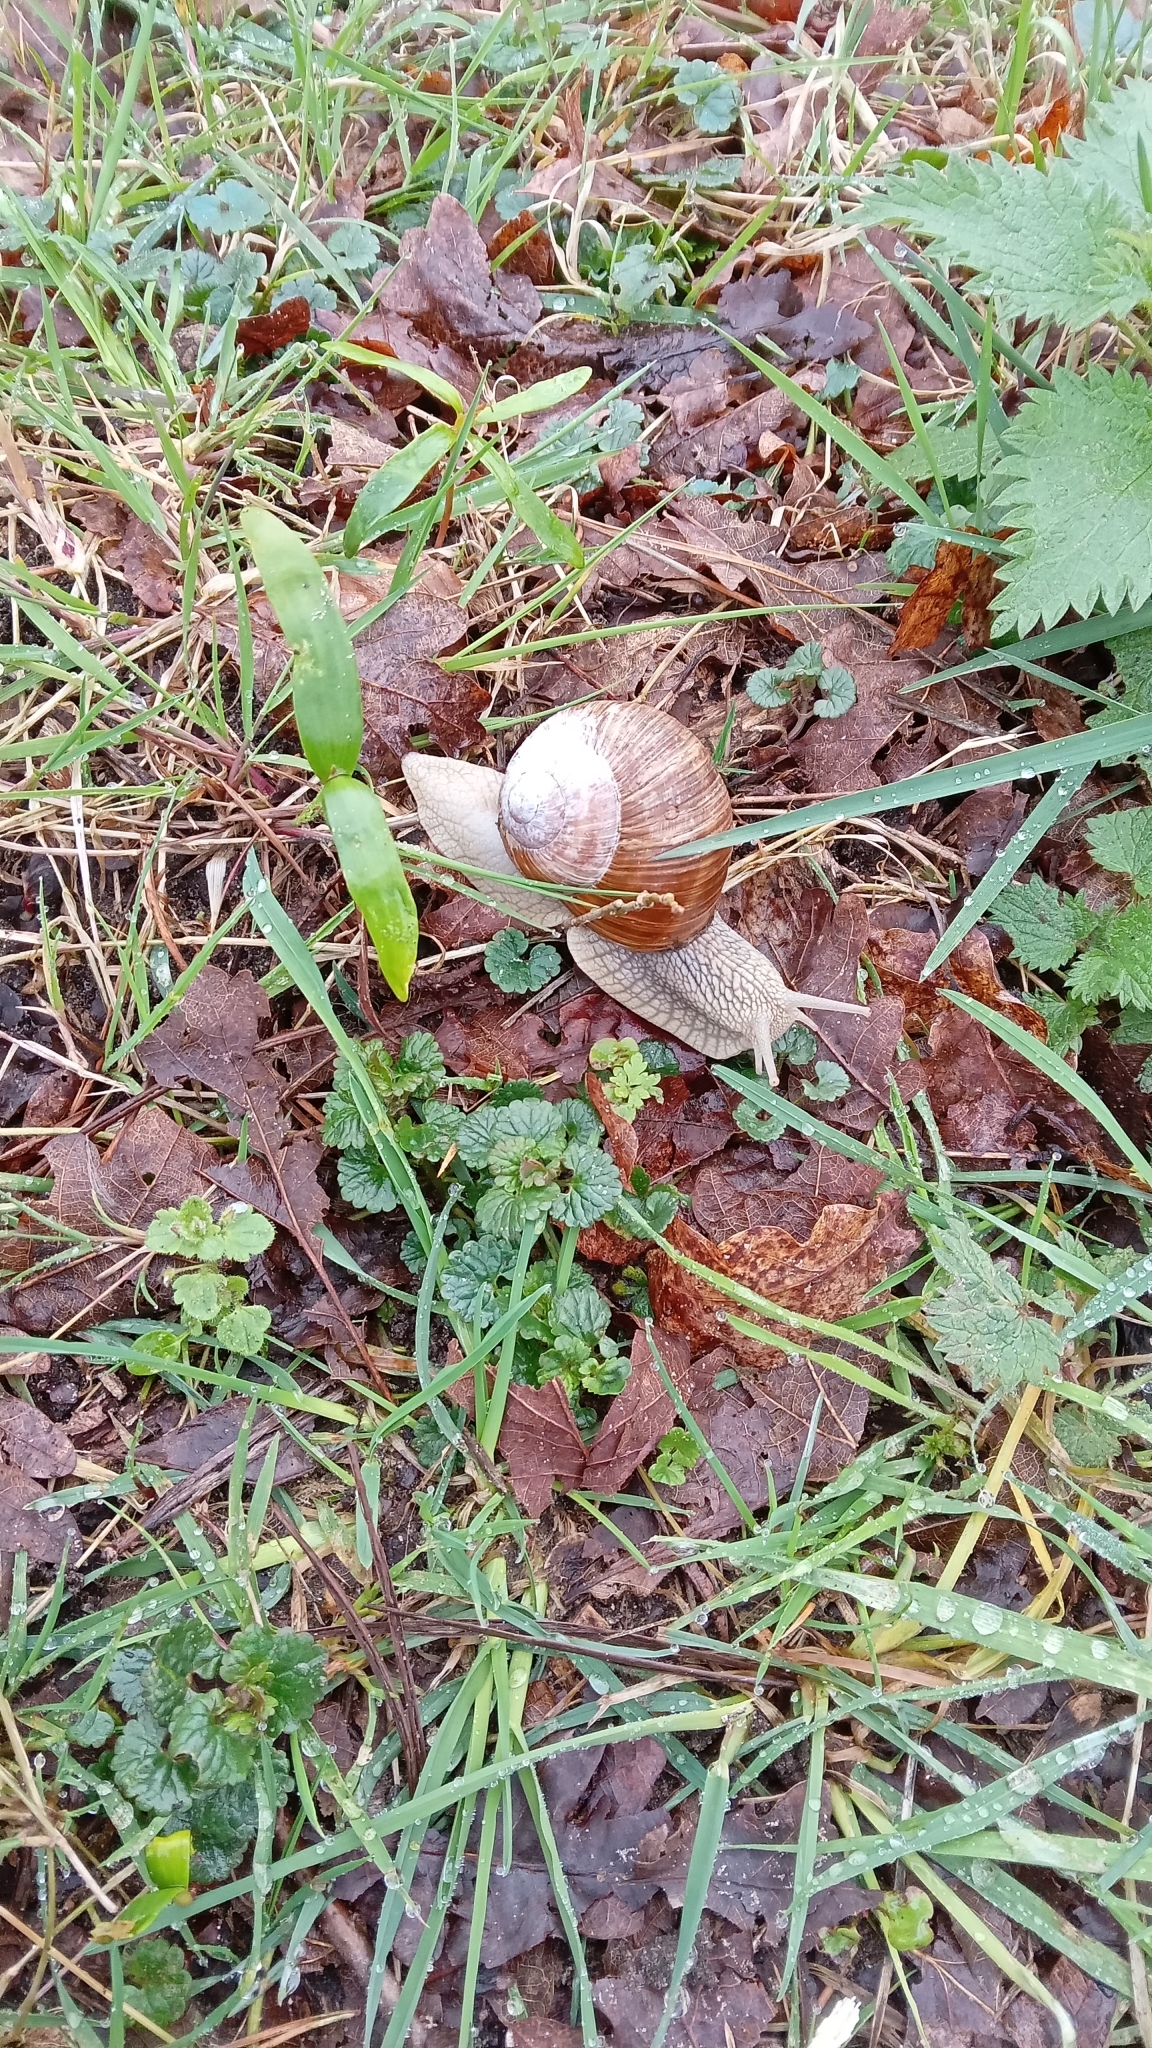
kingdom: Animalia
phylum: Mollusca
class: Gastropoda
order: Stylommatophora
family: Helicidae
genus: Helix
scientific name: Helix pomatia
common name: Roman snail
